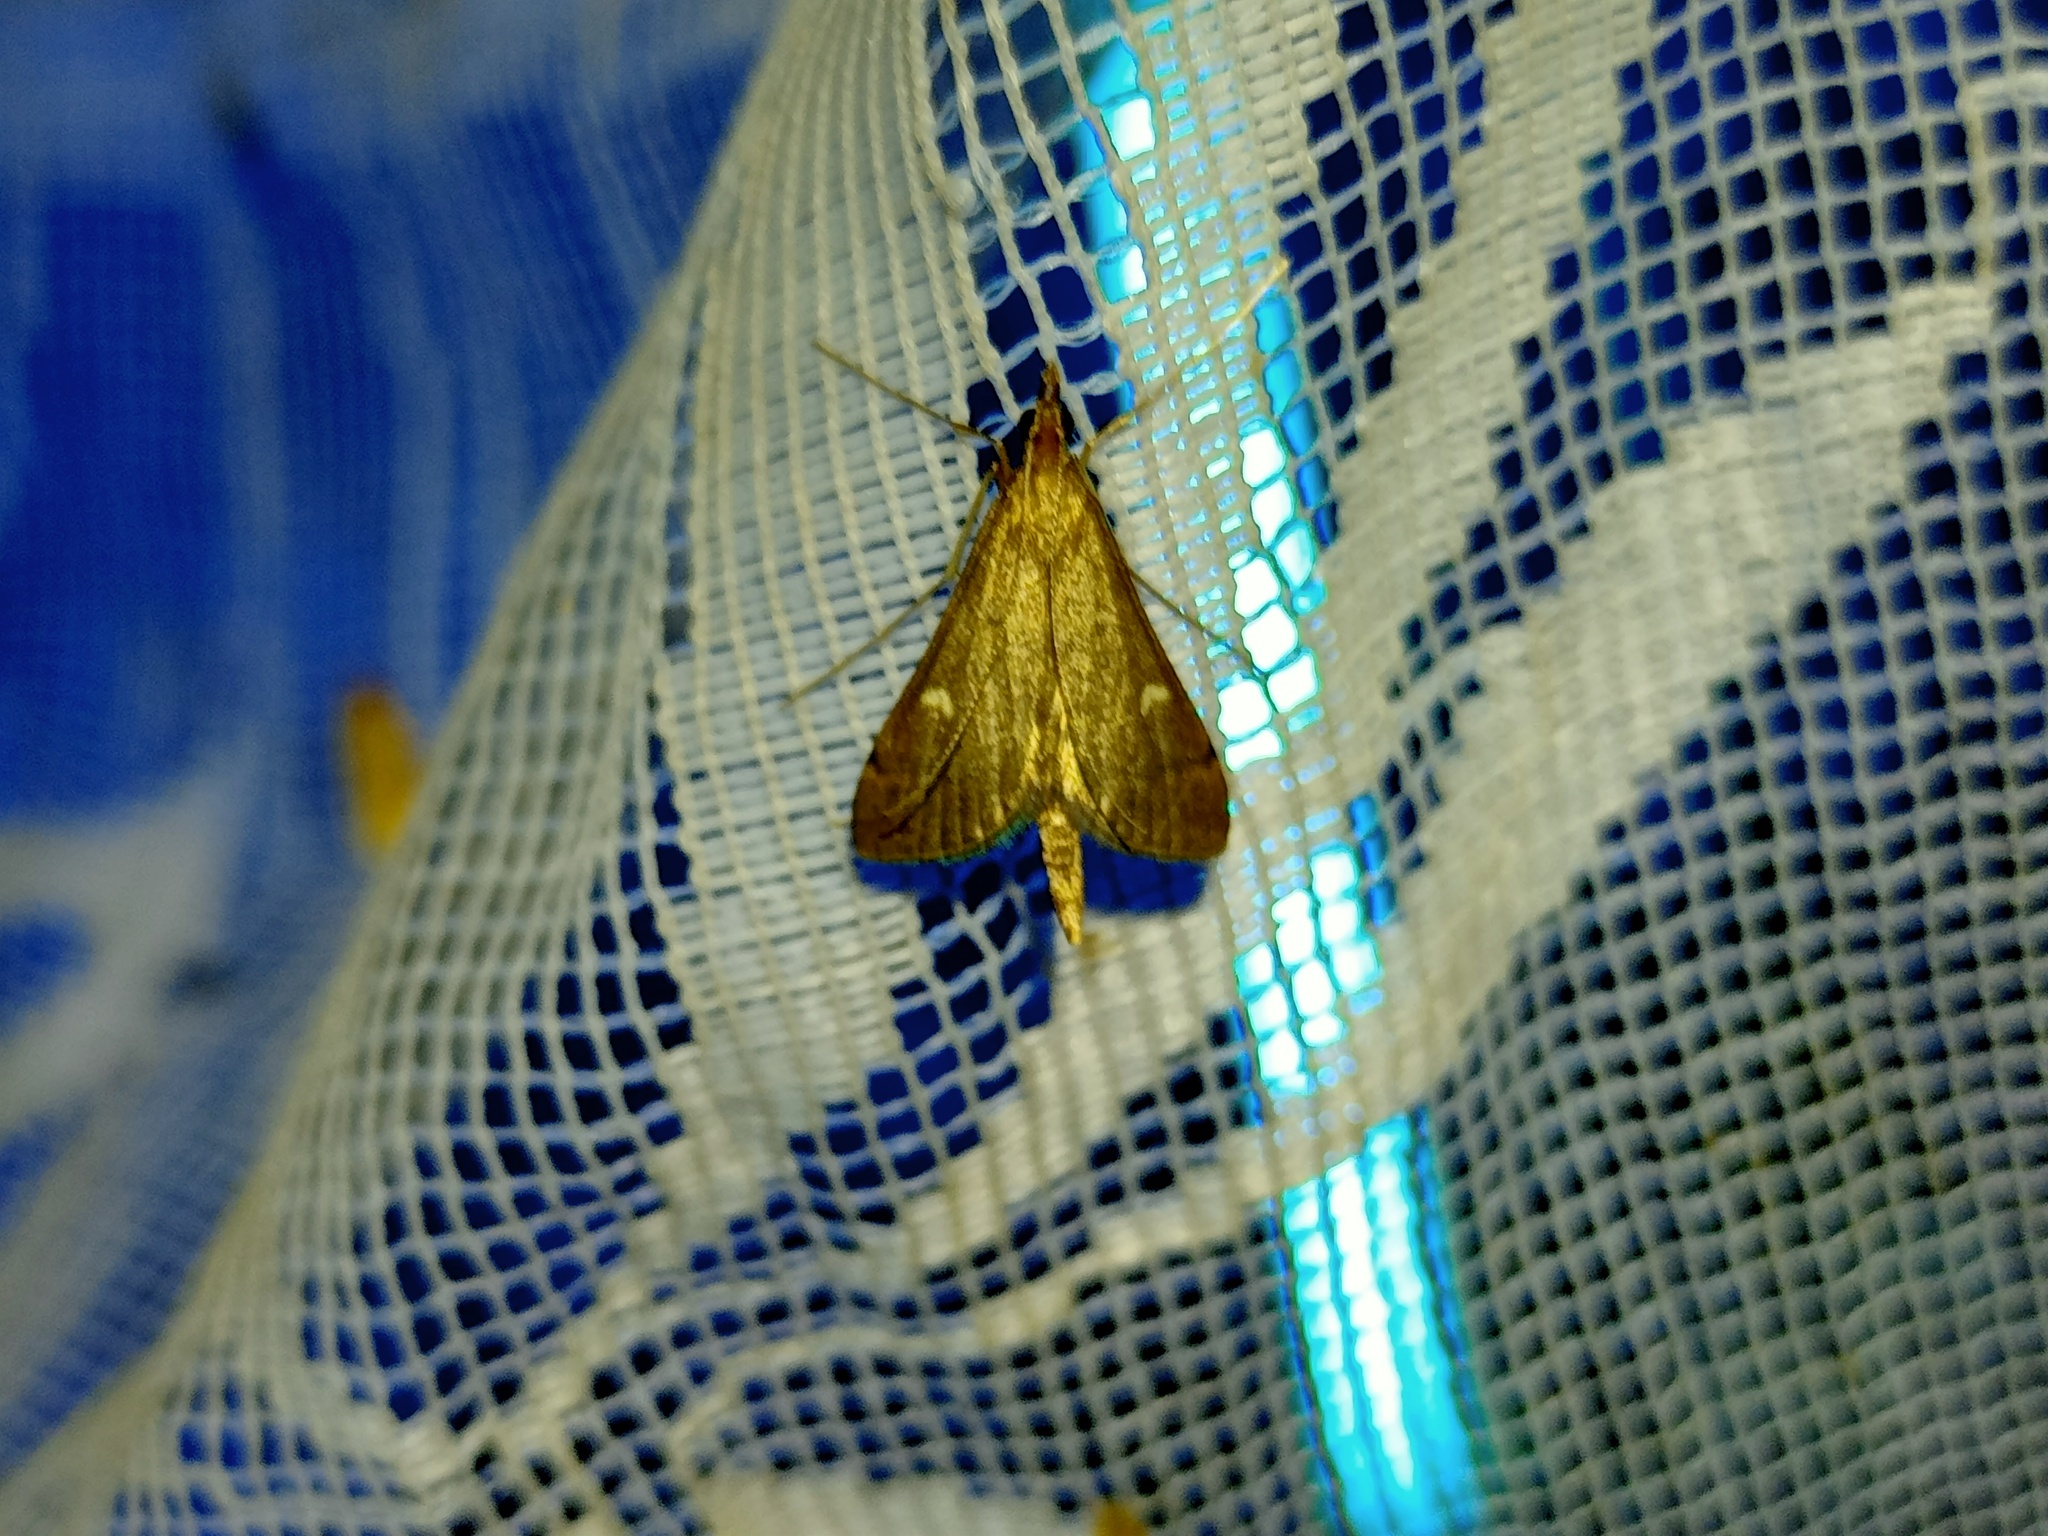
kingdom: Animalia
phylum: Arthropoda
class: Insecta
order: Lepidoptera
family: Crambidae
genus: Stenia
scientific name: Stenia Dolicharthria punctalis
